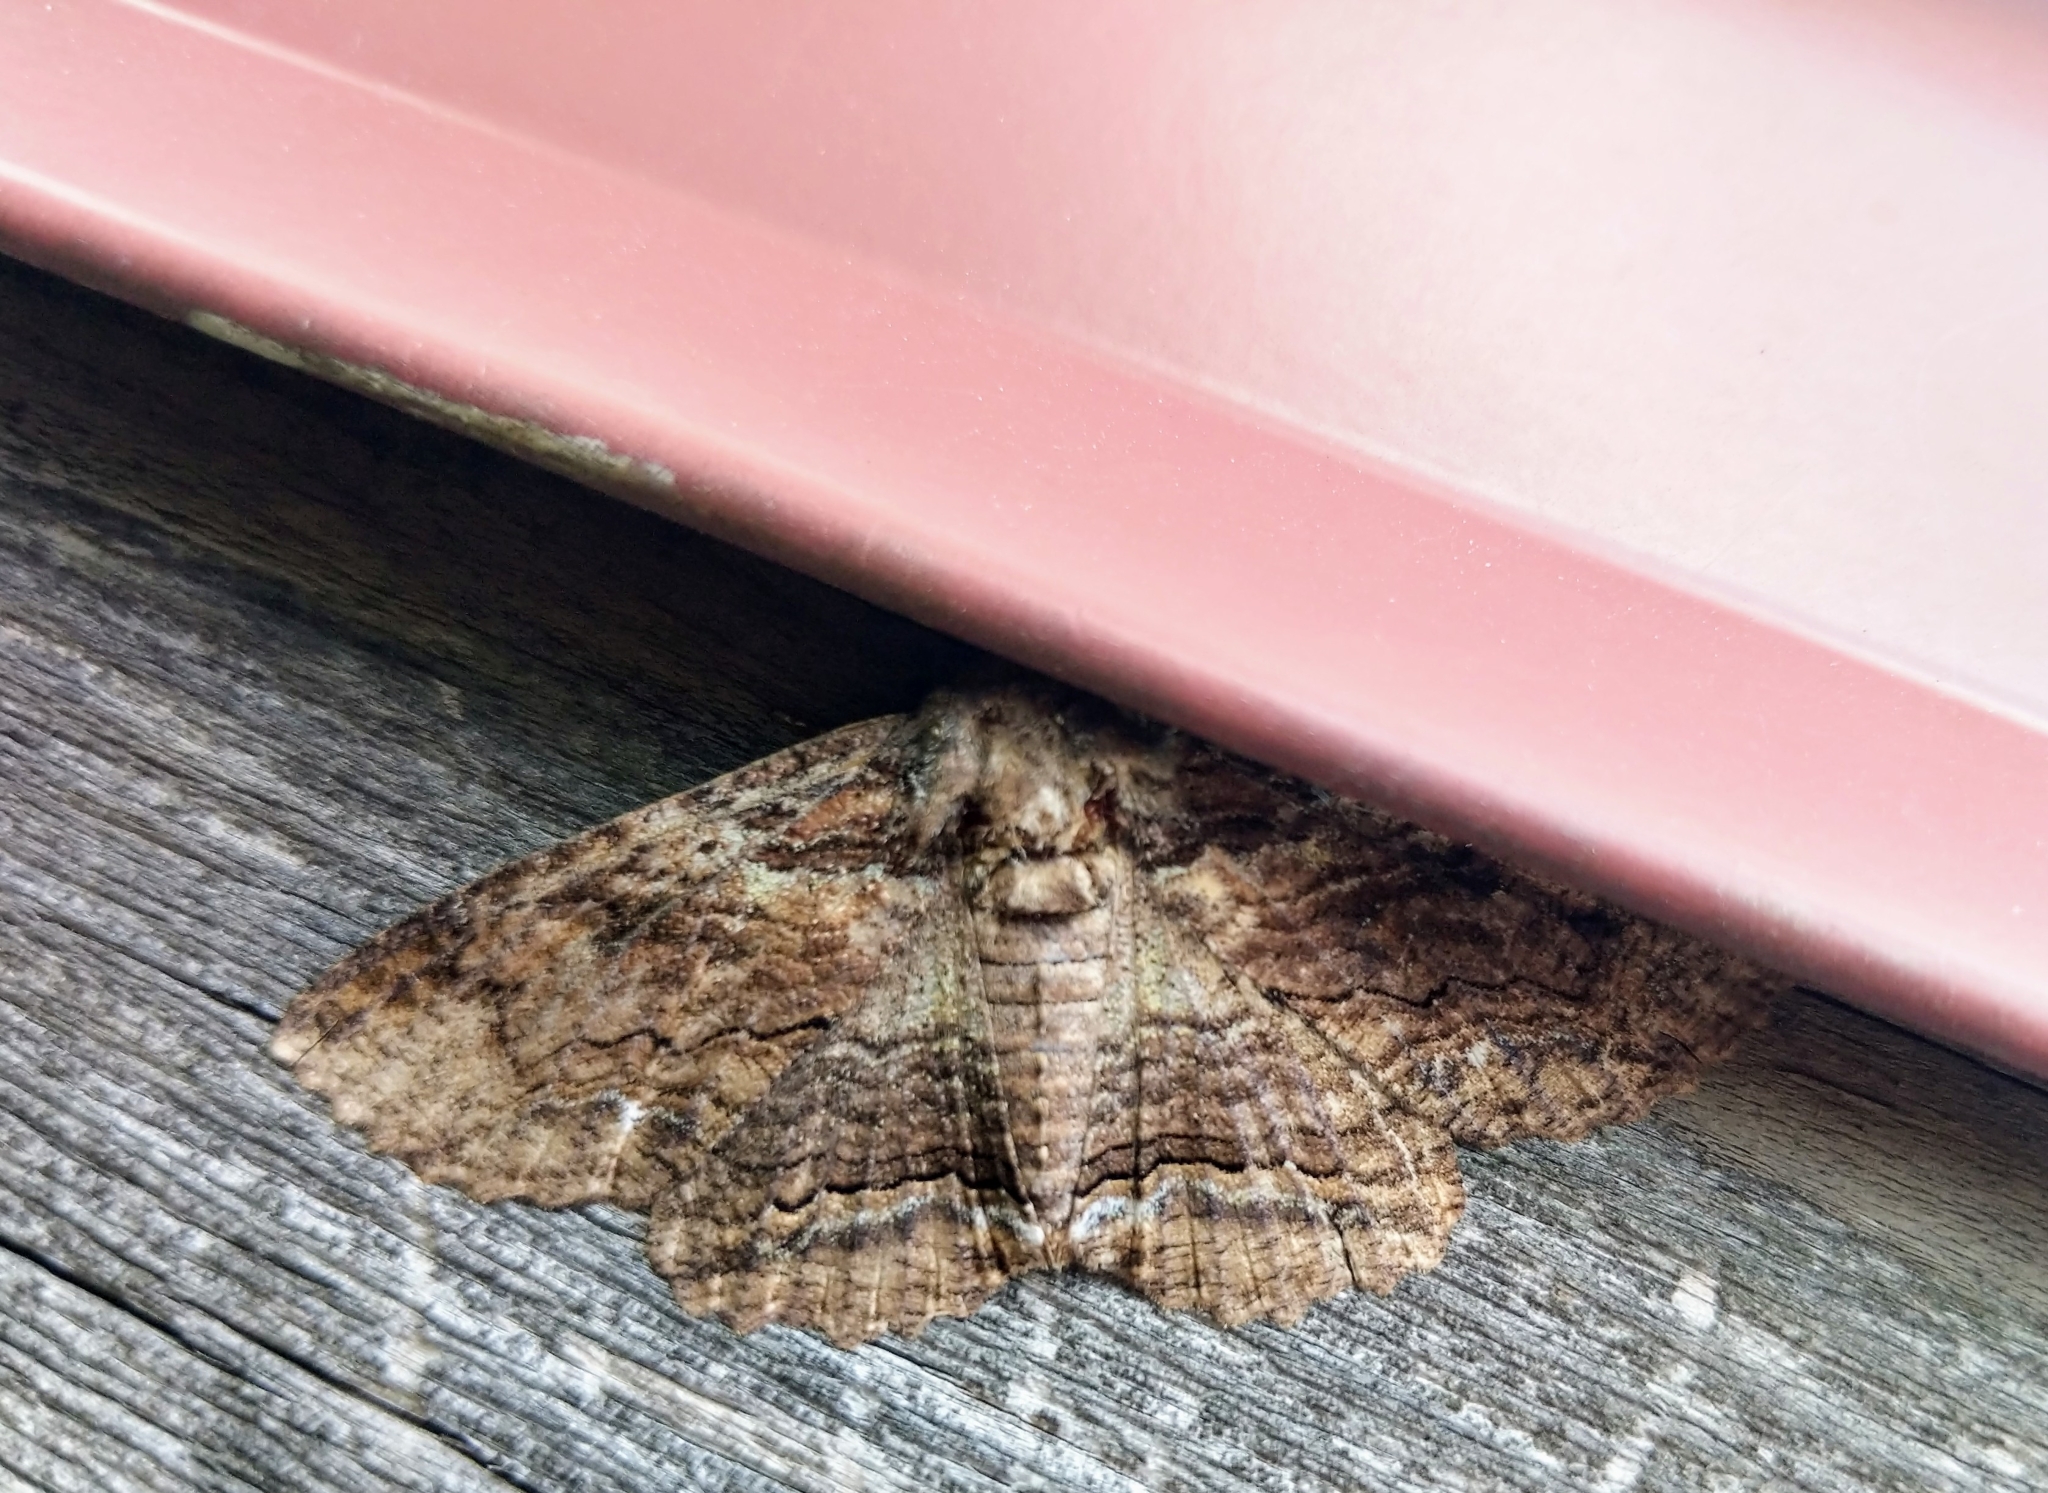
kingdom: Animalia
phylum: Arthropoda
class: Insecta
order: Lepidoptera
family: Erebidae
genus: Zale
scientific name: Zale lunata
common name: Lunate zale moth
